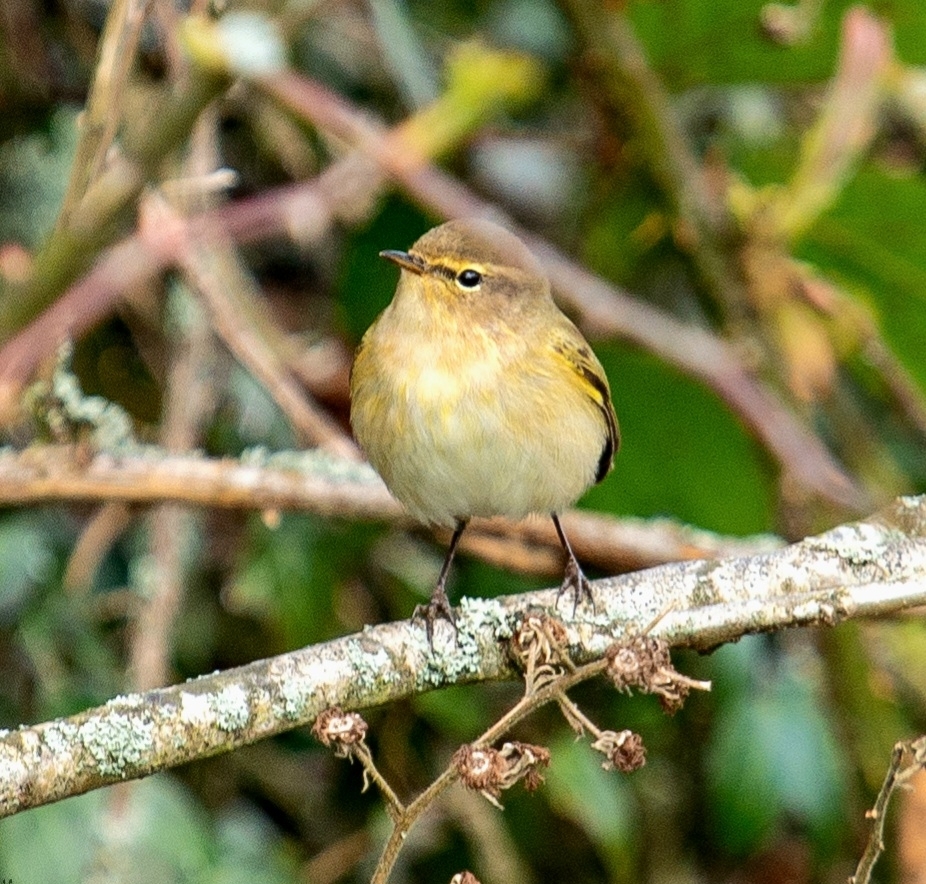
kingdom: Animalia
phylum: Chordata
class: Aves
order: Passeriformes
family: Phylloscopidae
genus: Phylloscopus
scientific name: Phylloscopus collybita
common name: Common chiffchaff
